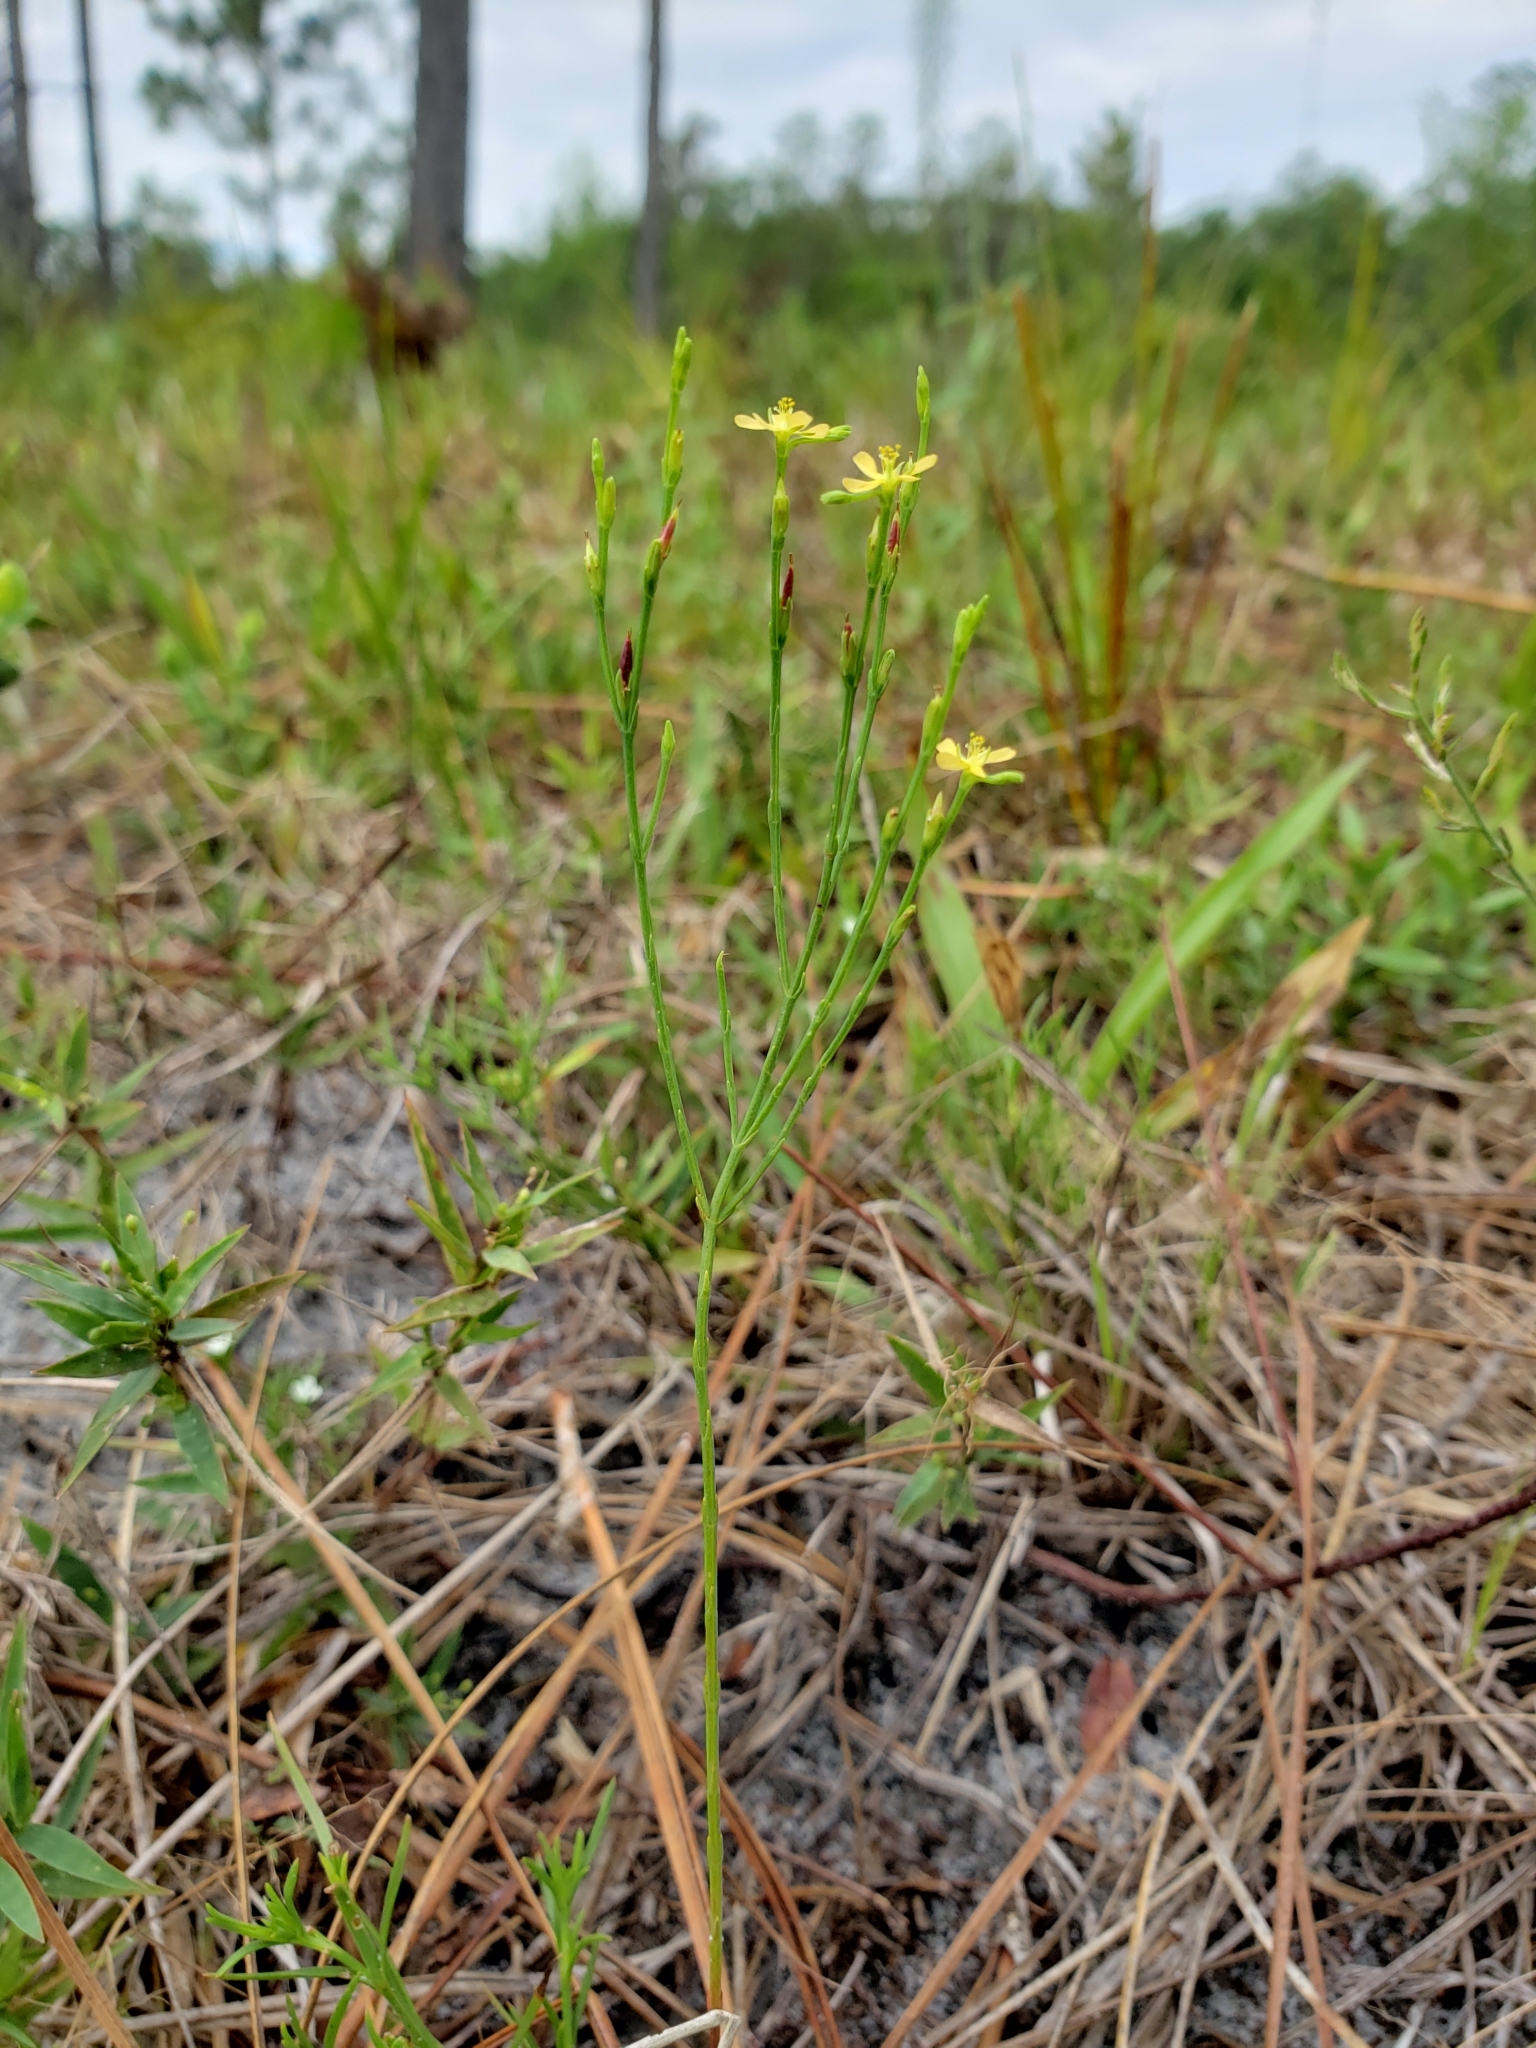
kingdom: Plantae
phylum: Tracheophyta
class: Magnoliopsida
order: Malpighiales
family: Hypericaceae
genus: Hypericum
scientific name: Hypericum gentianoides
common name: Gentian-leaved st. john's-wort
